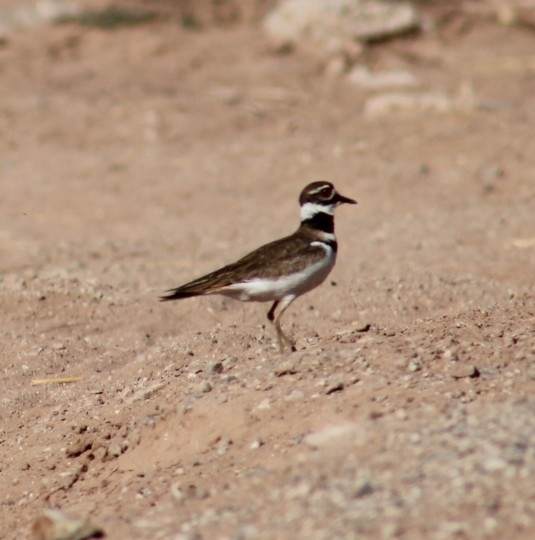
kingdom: Animalia
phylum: Chordata
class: Aves
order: Charadriiformes
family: Charadriidae
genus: Charadrius
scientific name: Charadrius vociferus
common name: Killdeer
